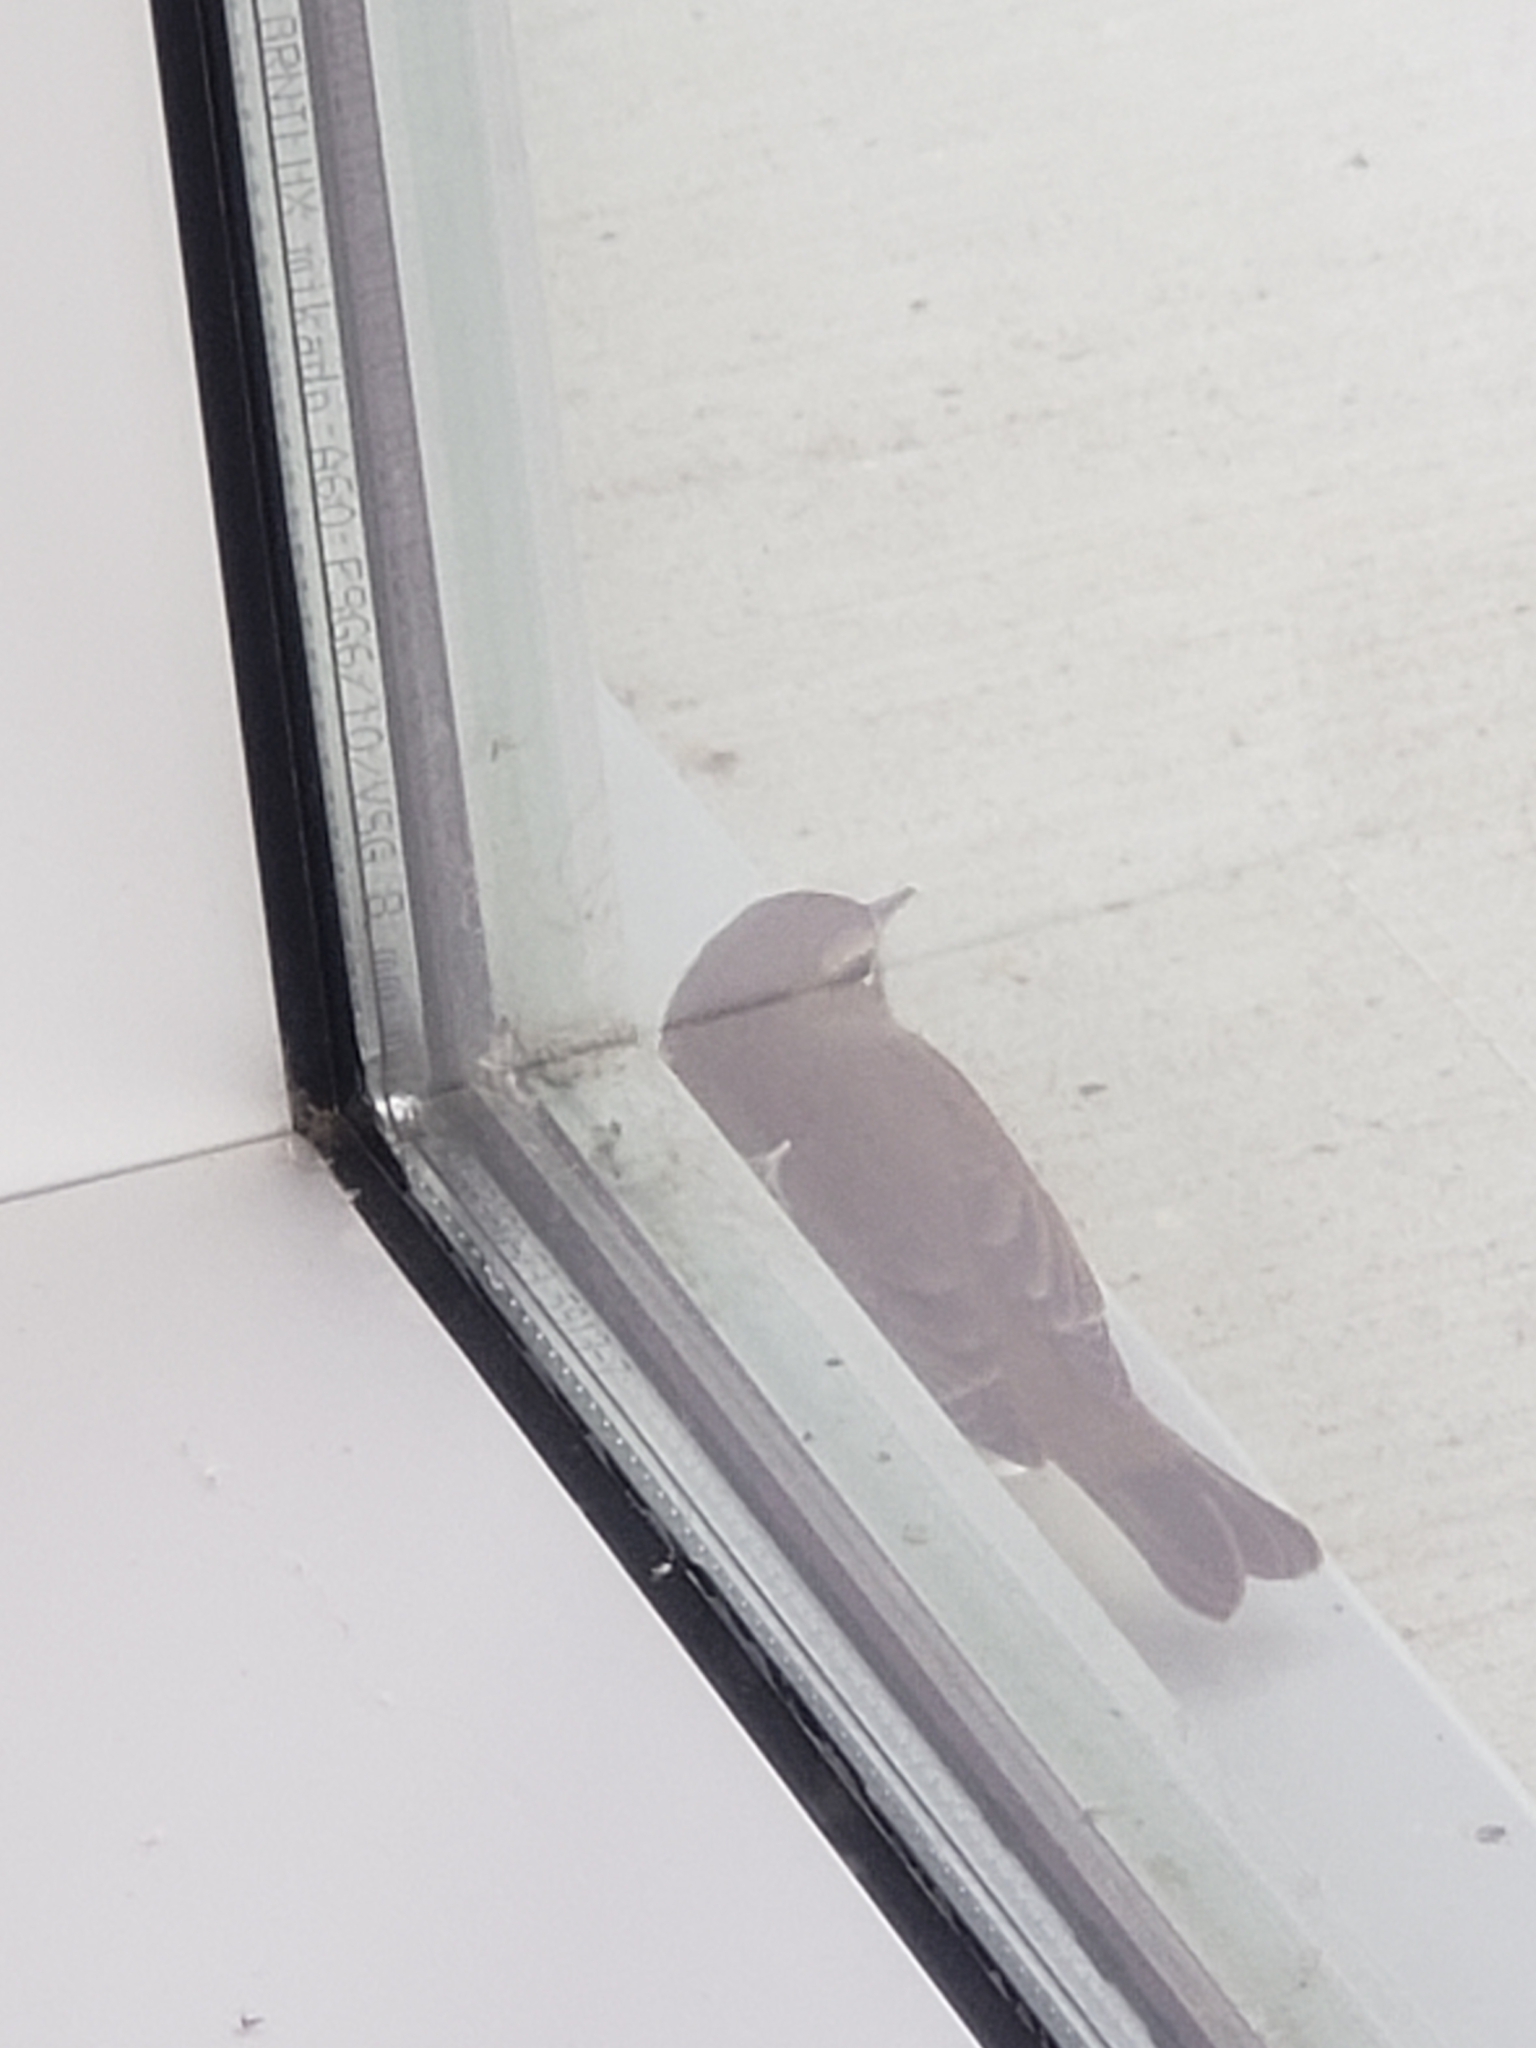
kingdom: Animalia
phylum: Chordata
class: Aves
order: Passeriformes
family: Parulidae
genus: Setophaga
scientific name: Setophaga palmarum
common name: Palm warbler
